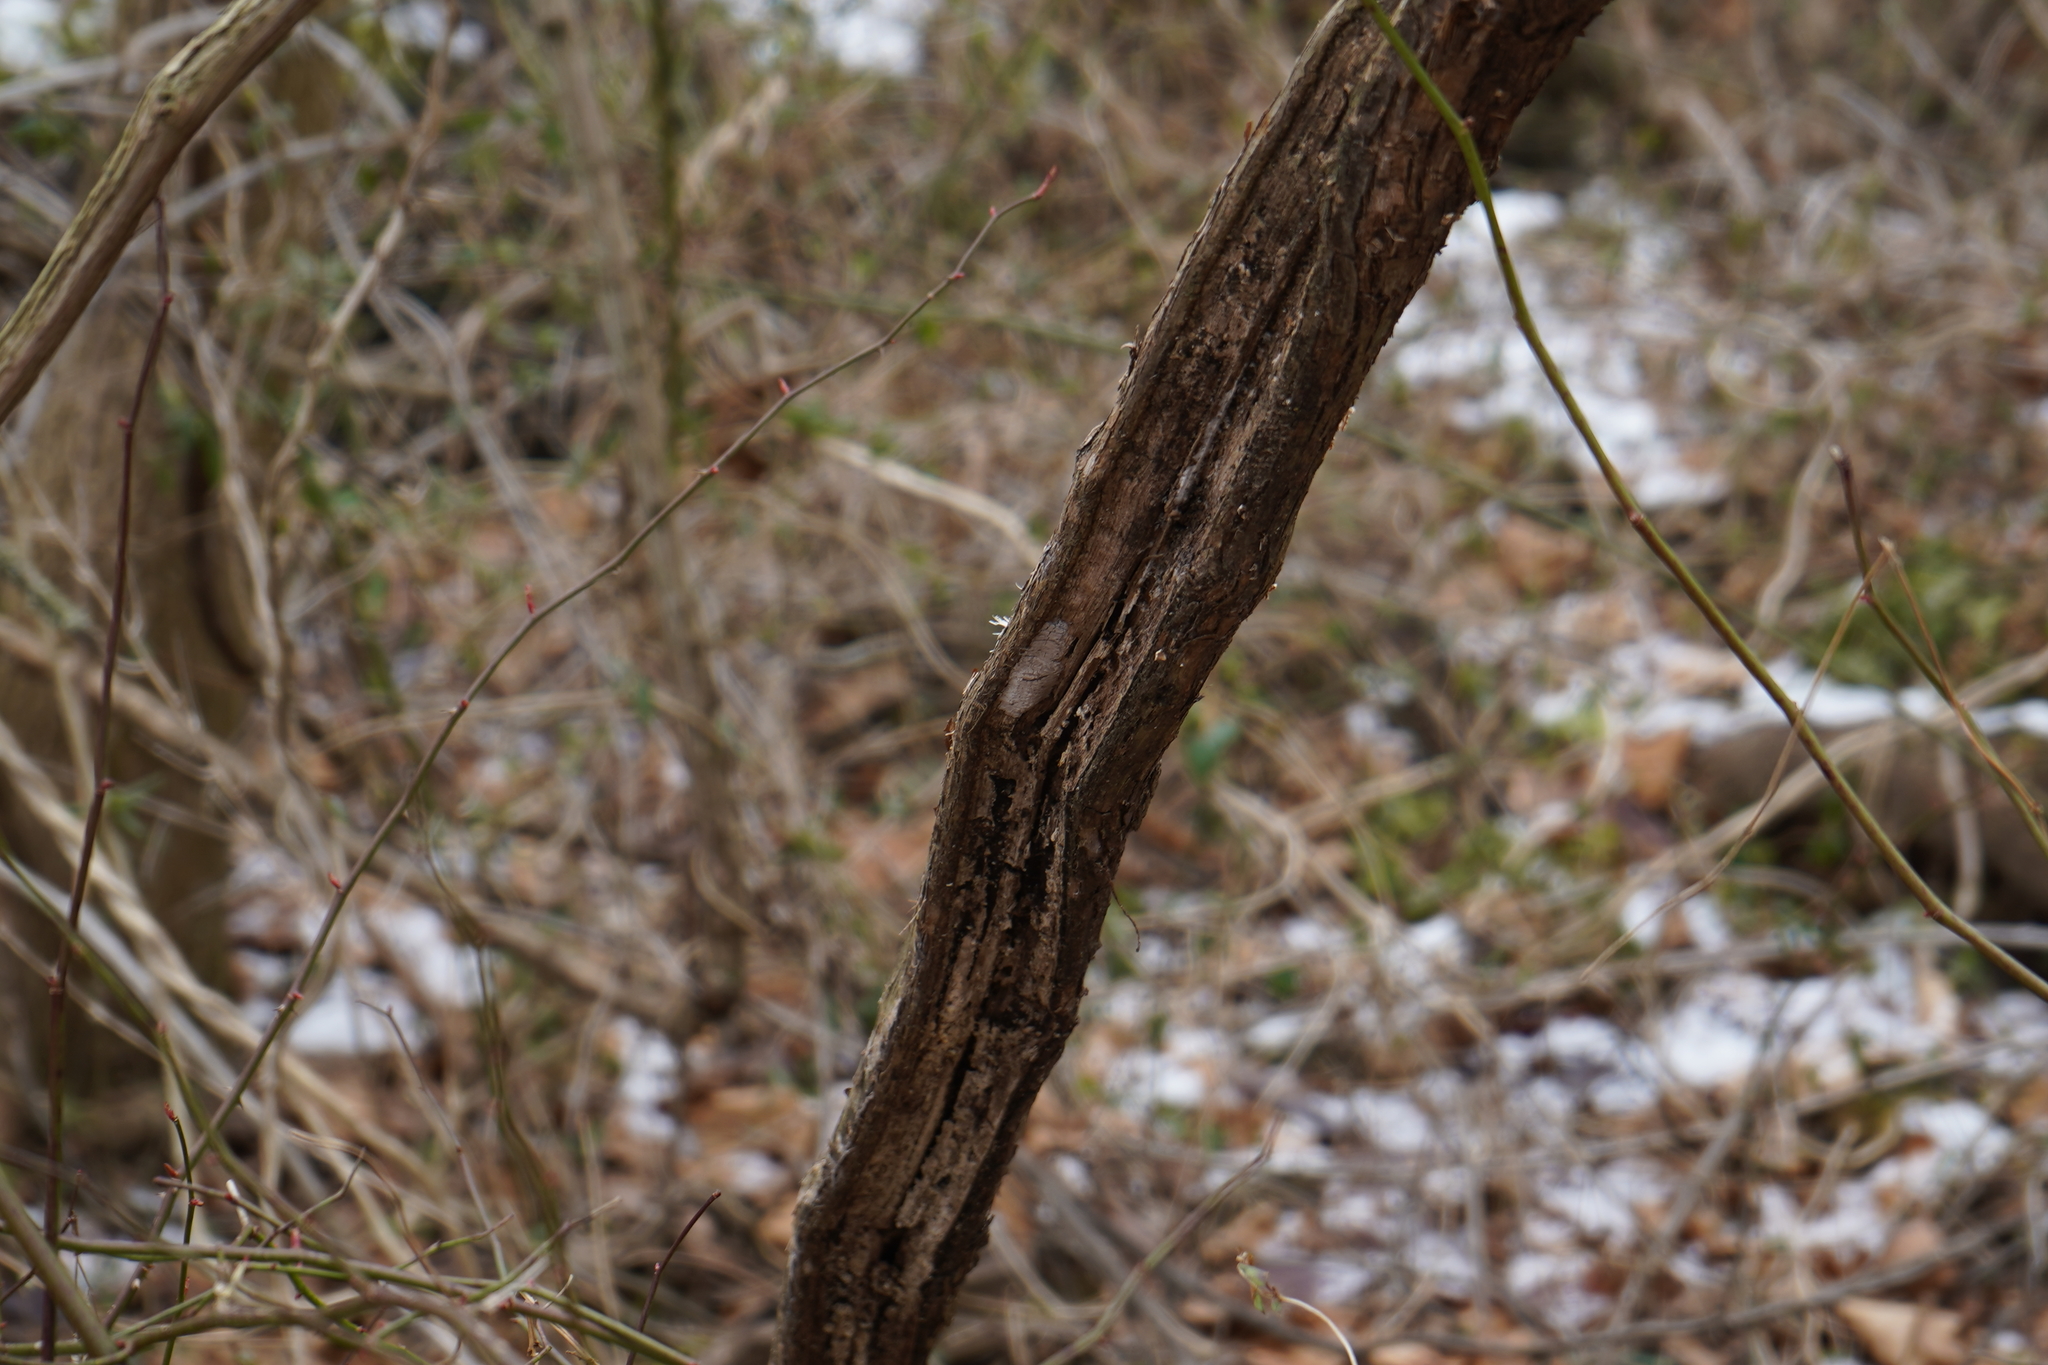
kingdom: Animalia
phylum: Arthropoda
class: Insecta
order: Hemiptera
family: Fulgoridae
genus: Lycorma
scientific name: Lycorma delicatula
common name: Spotted lanternfly
